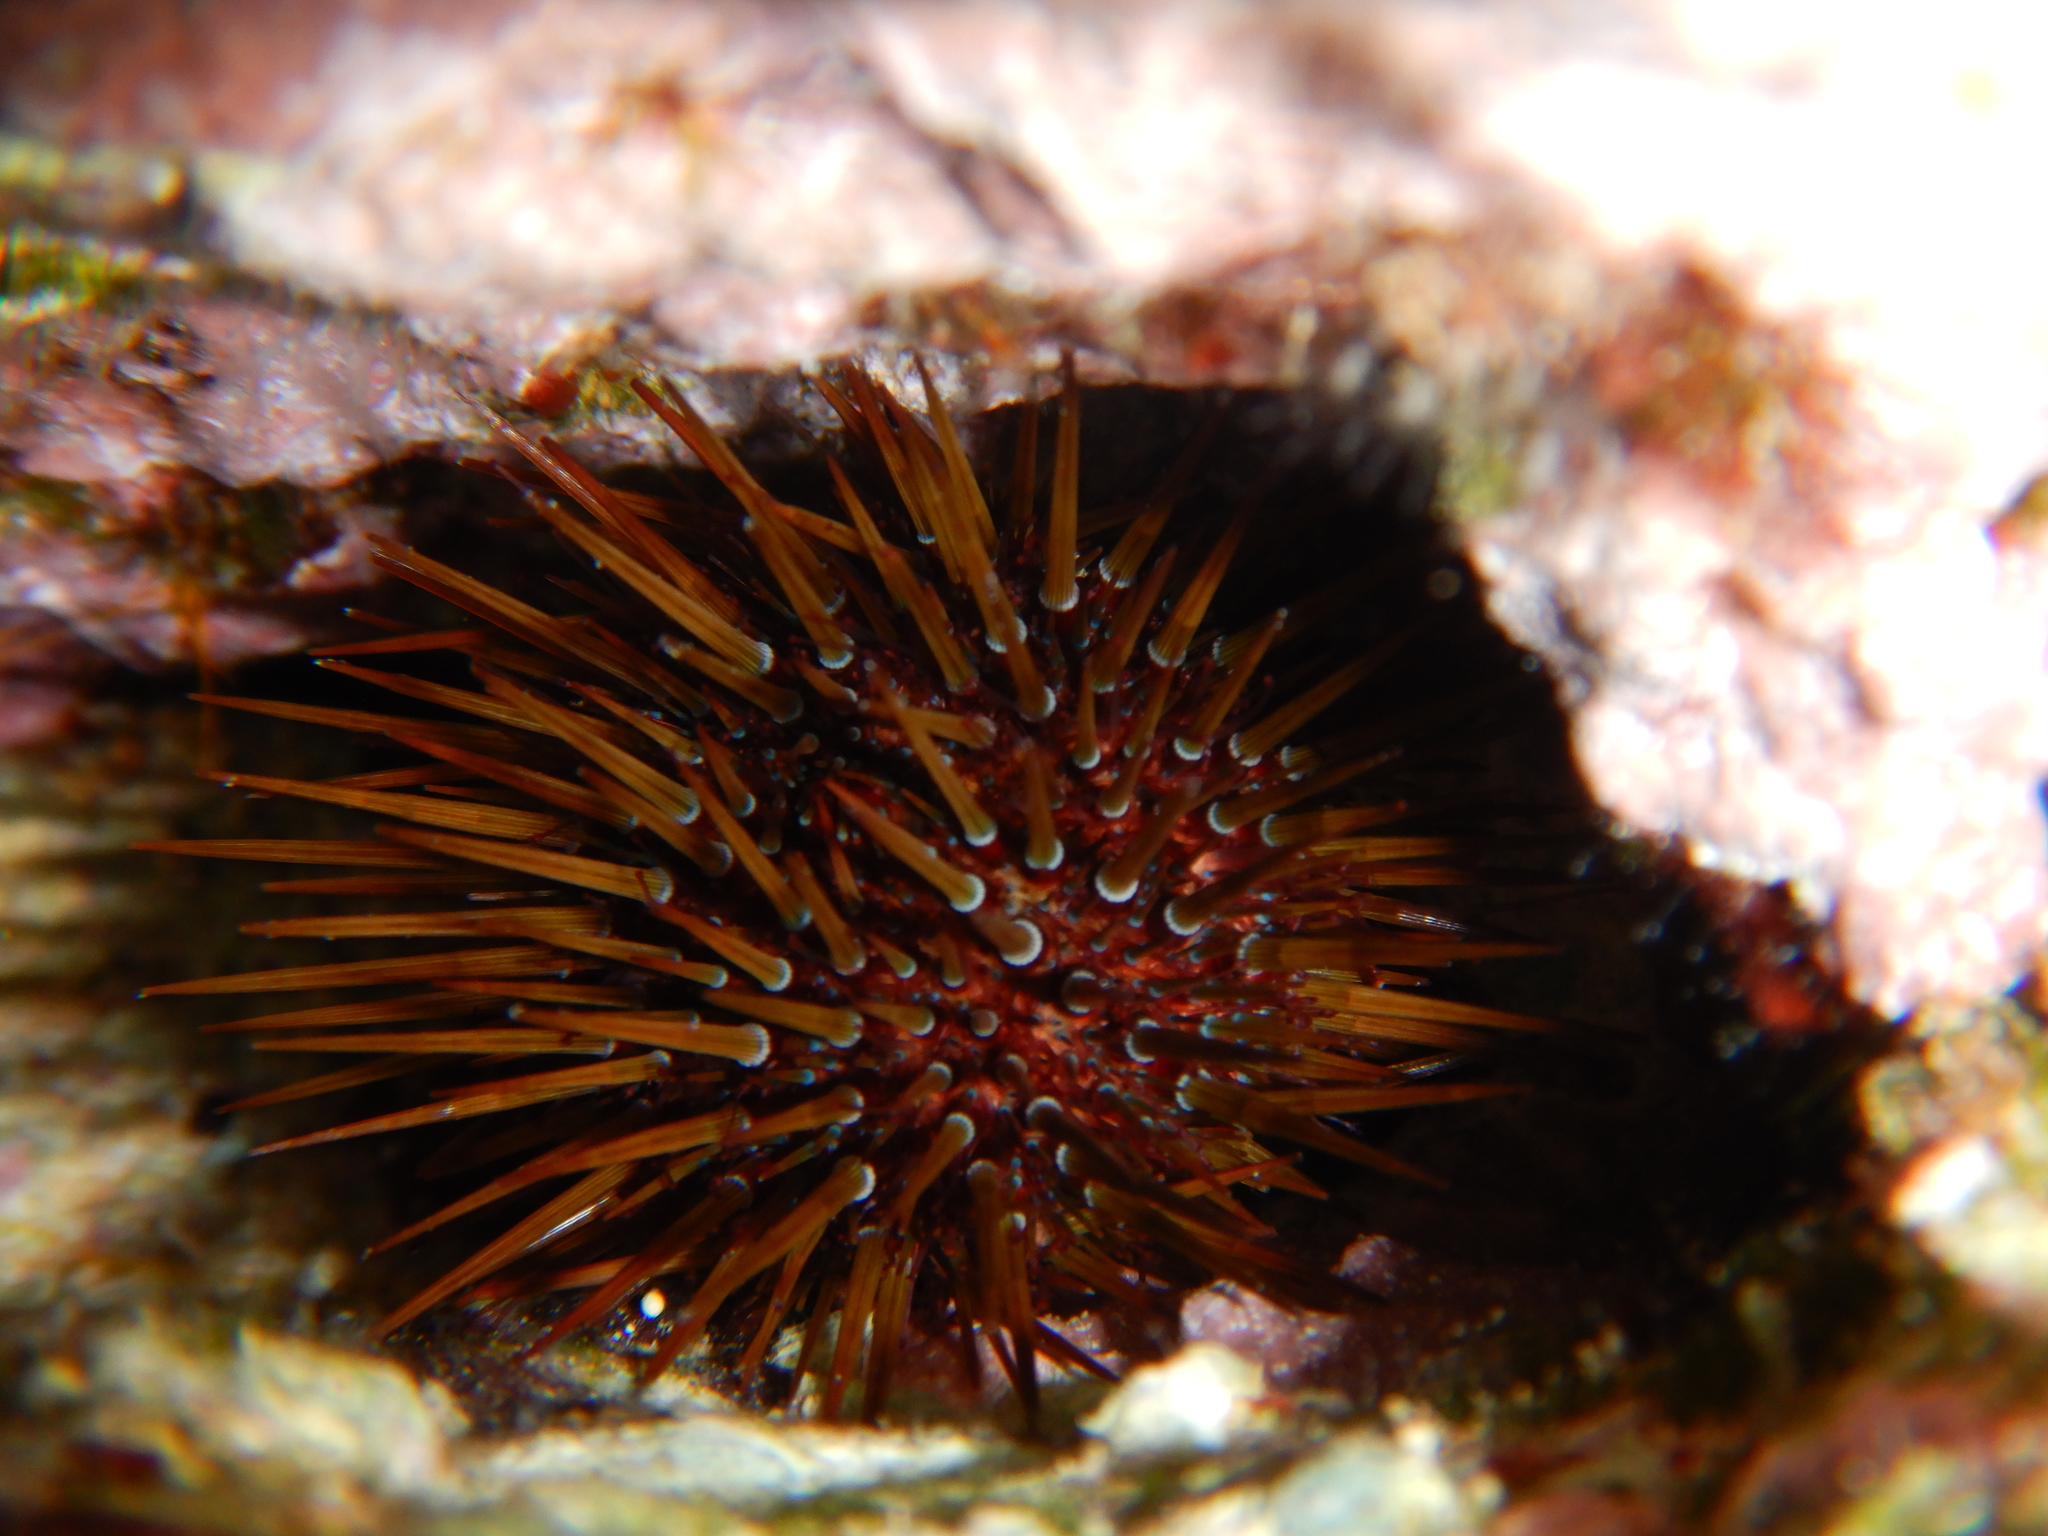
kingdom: Animalia
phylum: Echinodermata
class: Echinoidea
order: Camarodonta
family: Parechinidae
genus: Paracentrotus
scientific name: Paracentrotus lividus
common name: Purple sea urchin
